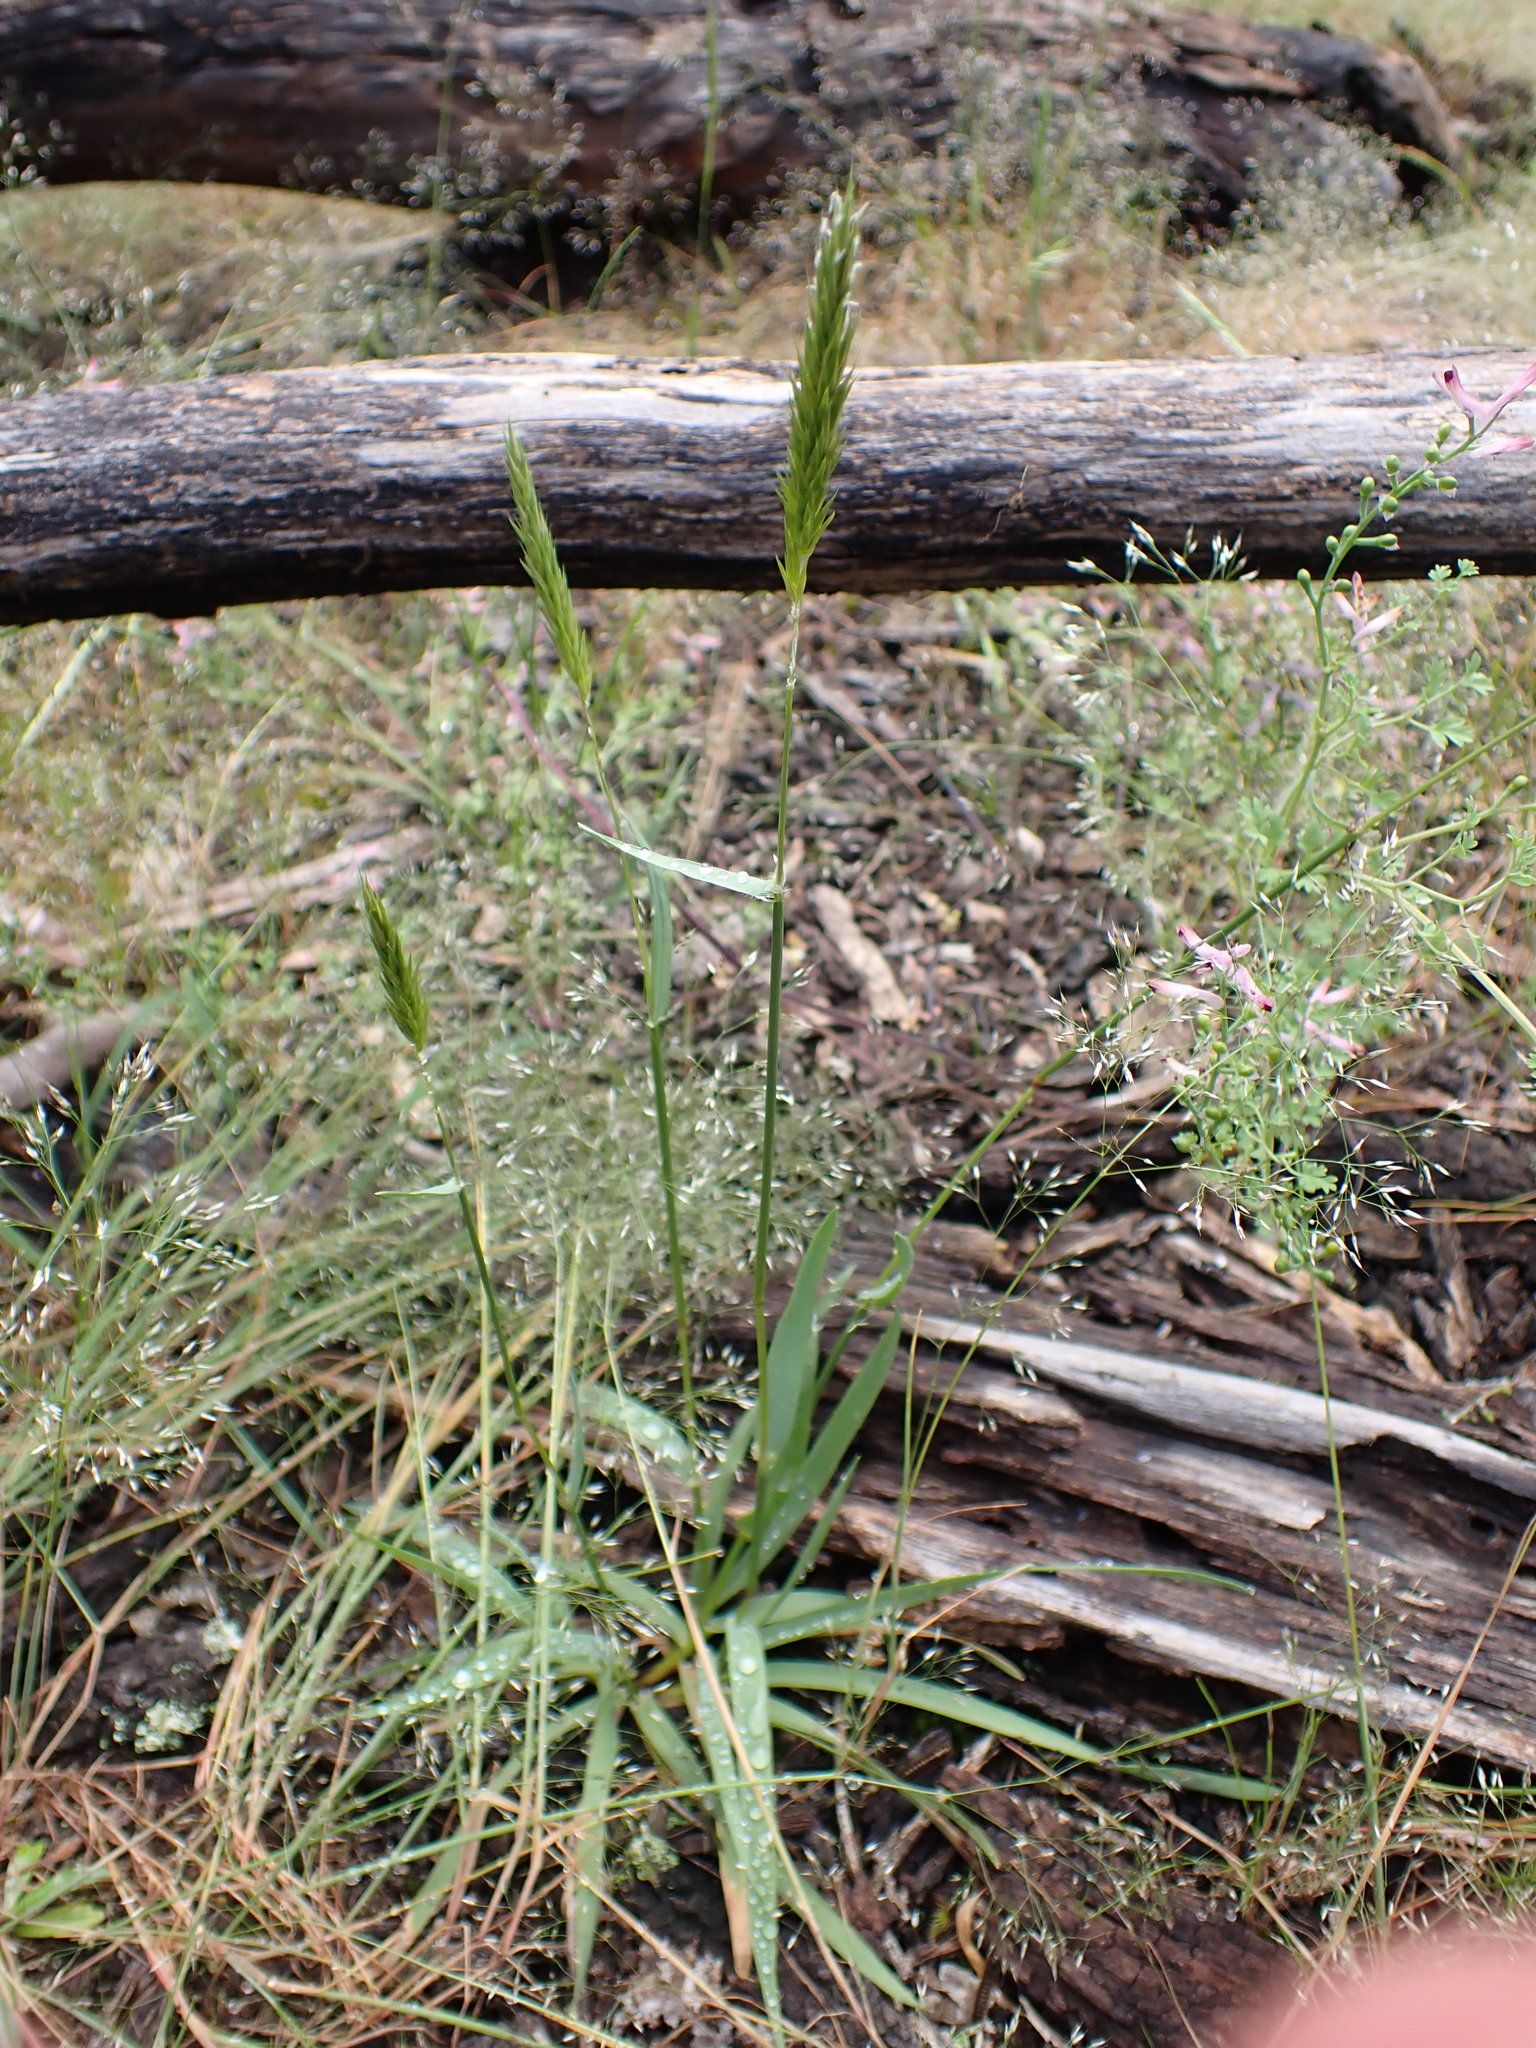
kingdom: Plantae
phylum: Tracheophyta
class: Liliopsida
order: Poales
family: Poaceae
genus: Anthoxanthum
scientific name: Anthoxanthum odoratum
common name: Sweet vernalgrass
